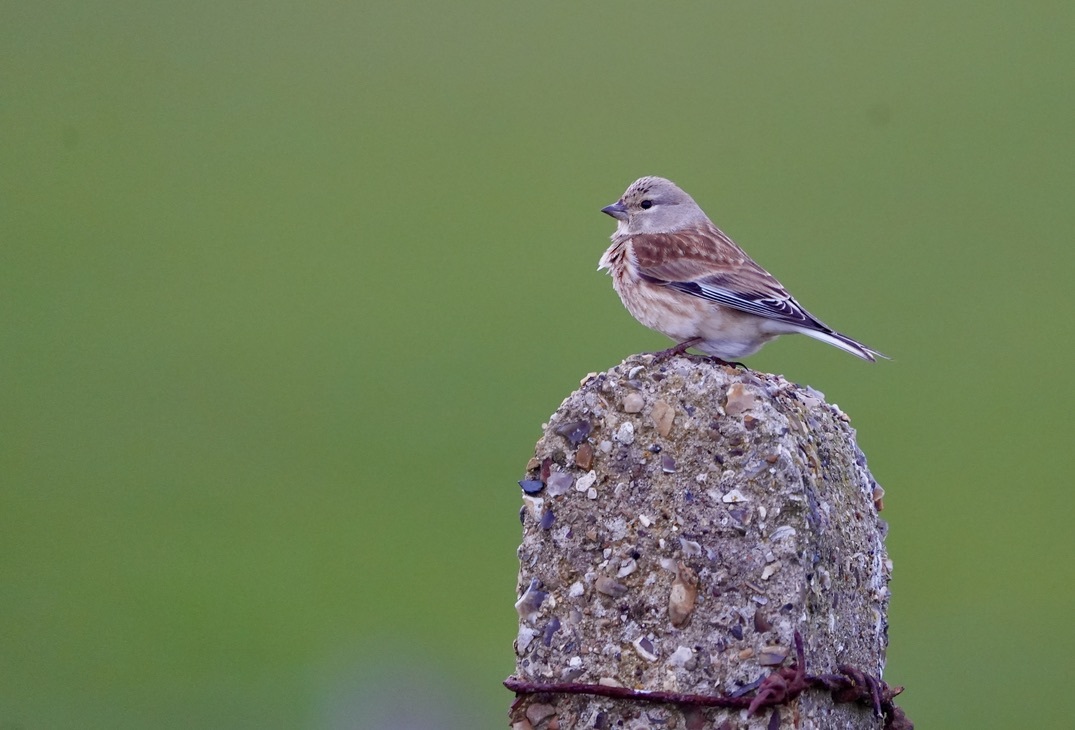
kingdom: Animalia
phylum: Chordata
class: Aves
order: Passeriformes
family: Fringillidae
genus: Linaria
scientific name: Linaria cannabina
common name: Common linnet
